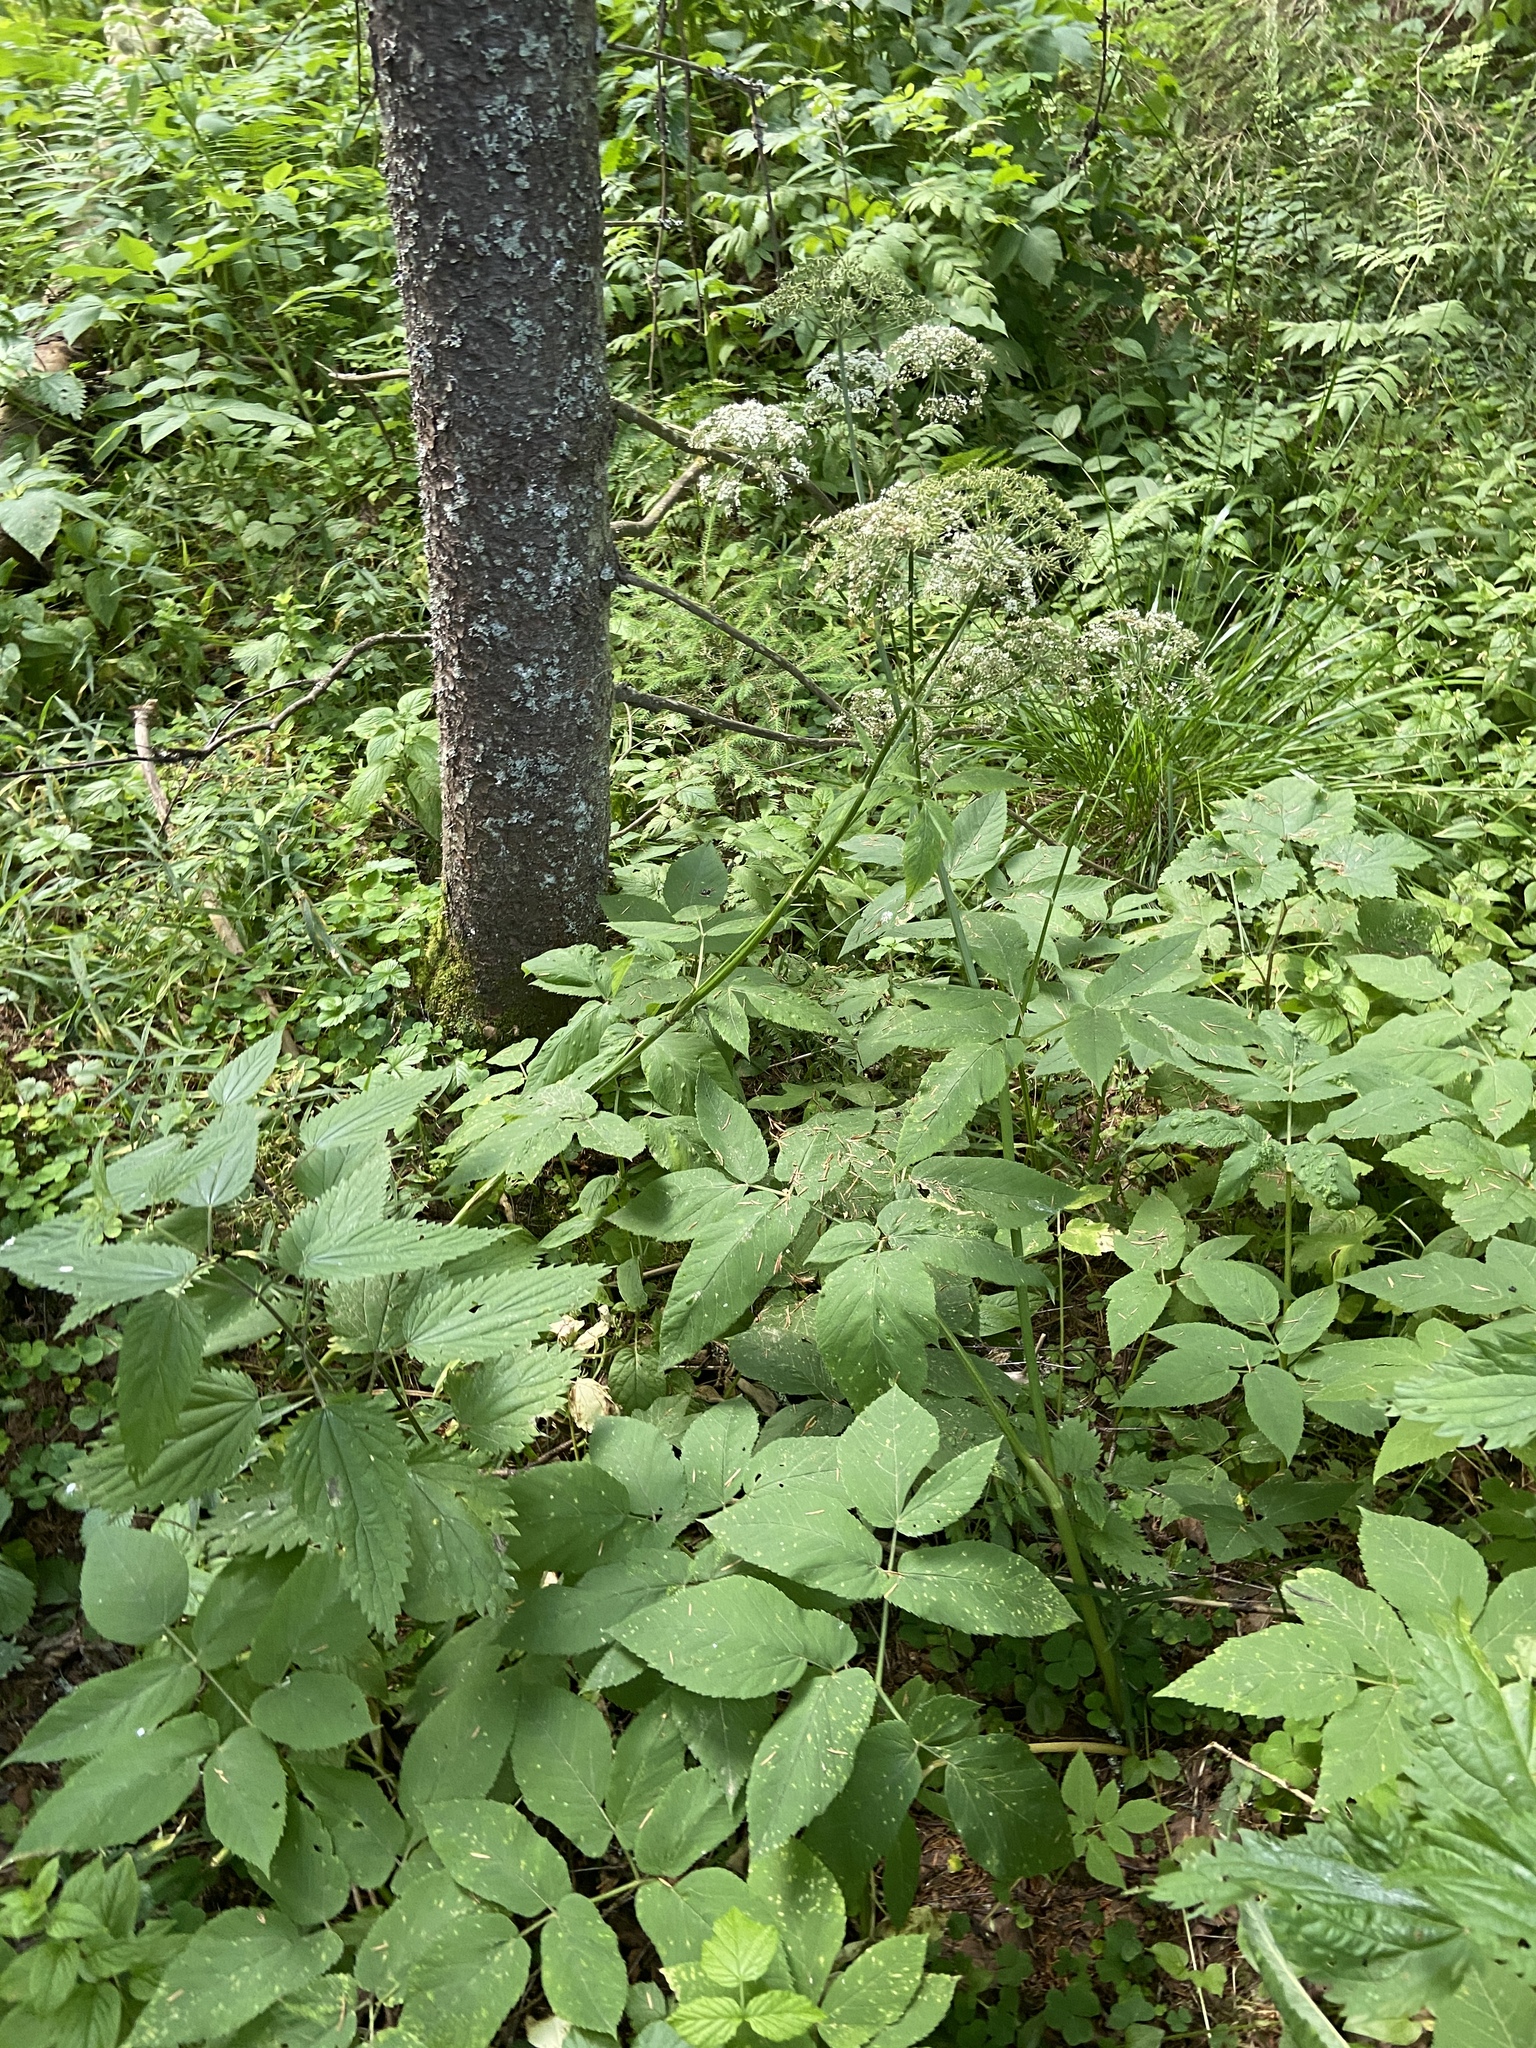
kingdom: Plantae
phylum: Tracheophyta
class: Magnoliopsida
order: Apiales
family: Apiaceae
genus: Aegopodium
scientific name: Aegopodium podagraria
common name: Ground-elder
